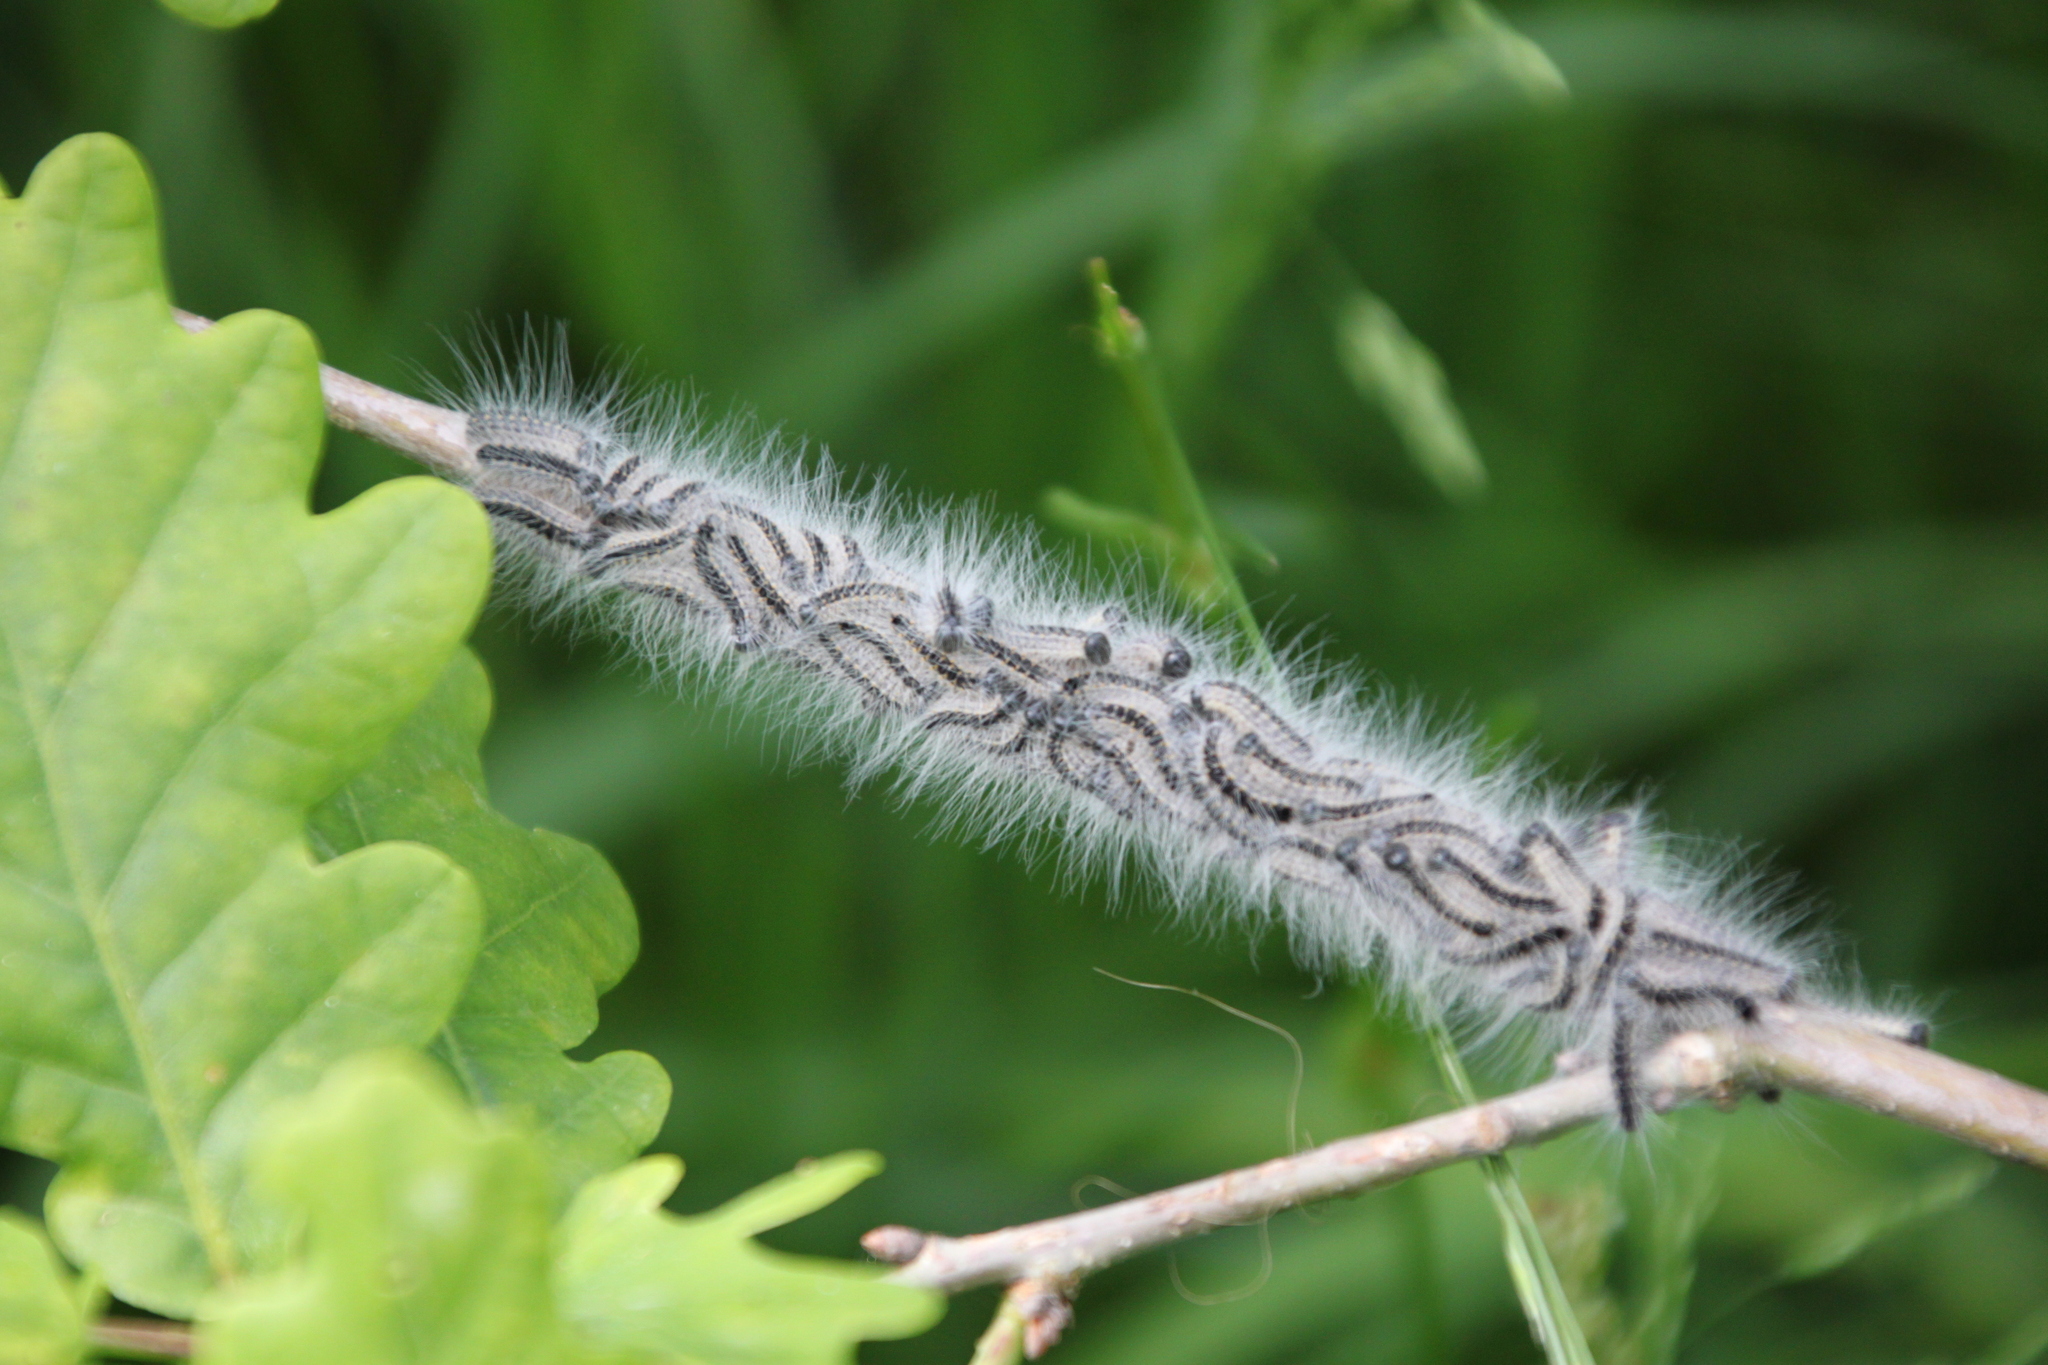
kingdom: Animalia
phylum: Arthropoda
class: Insecta
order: Lepidoptera
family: Notodontidae
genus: Thaumetopoea
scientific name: Thaumetopoea processionea
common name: Oak processionea
